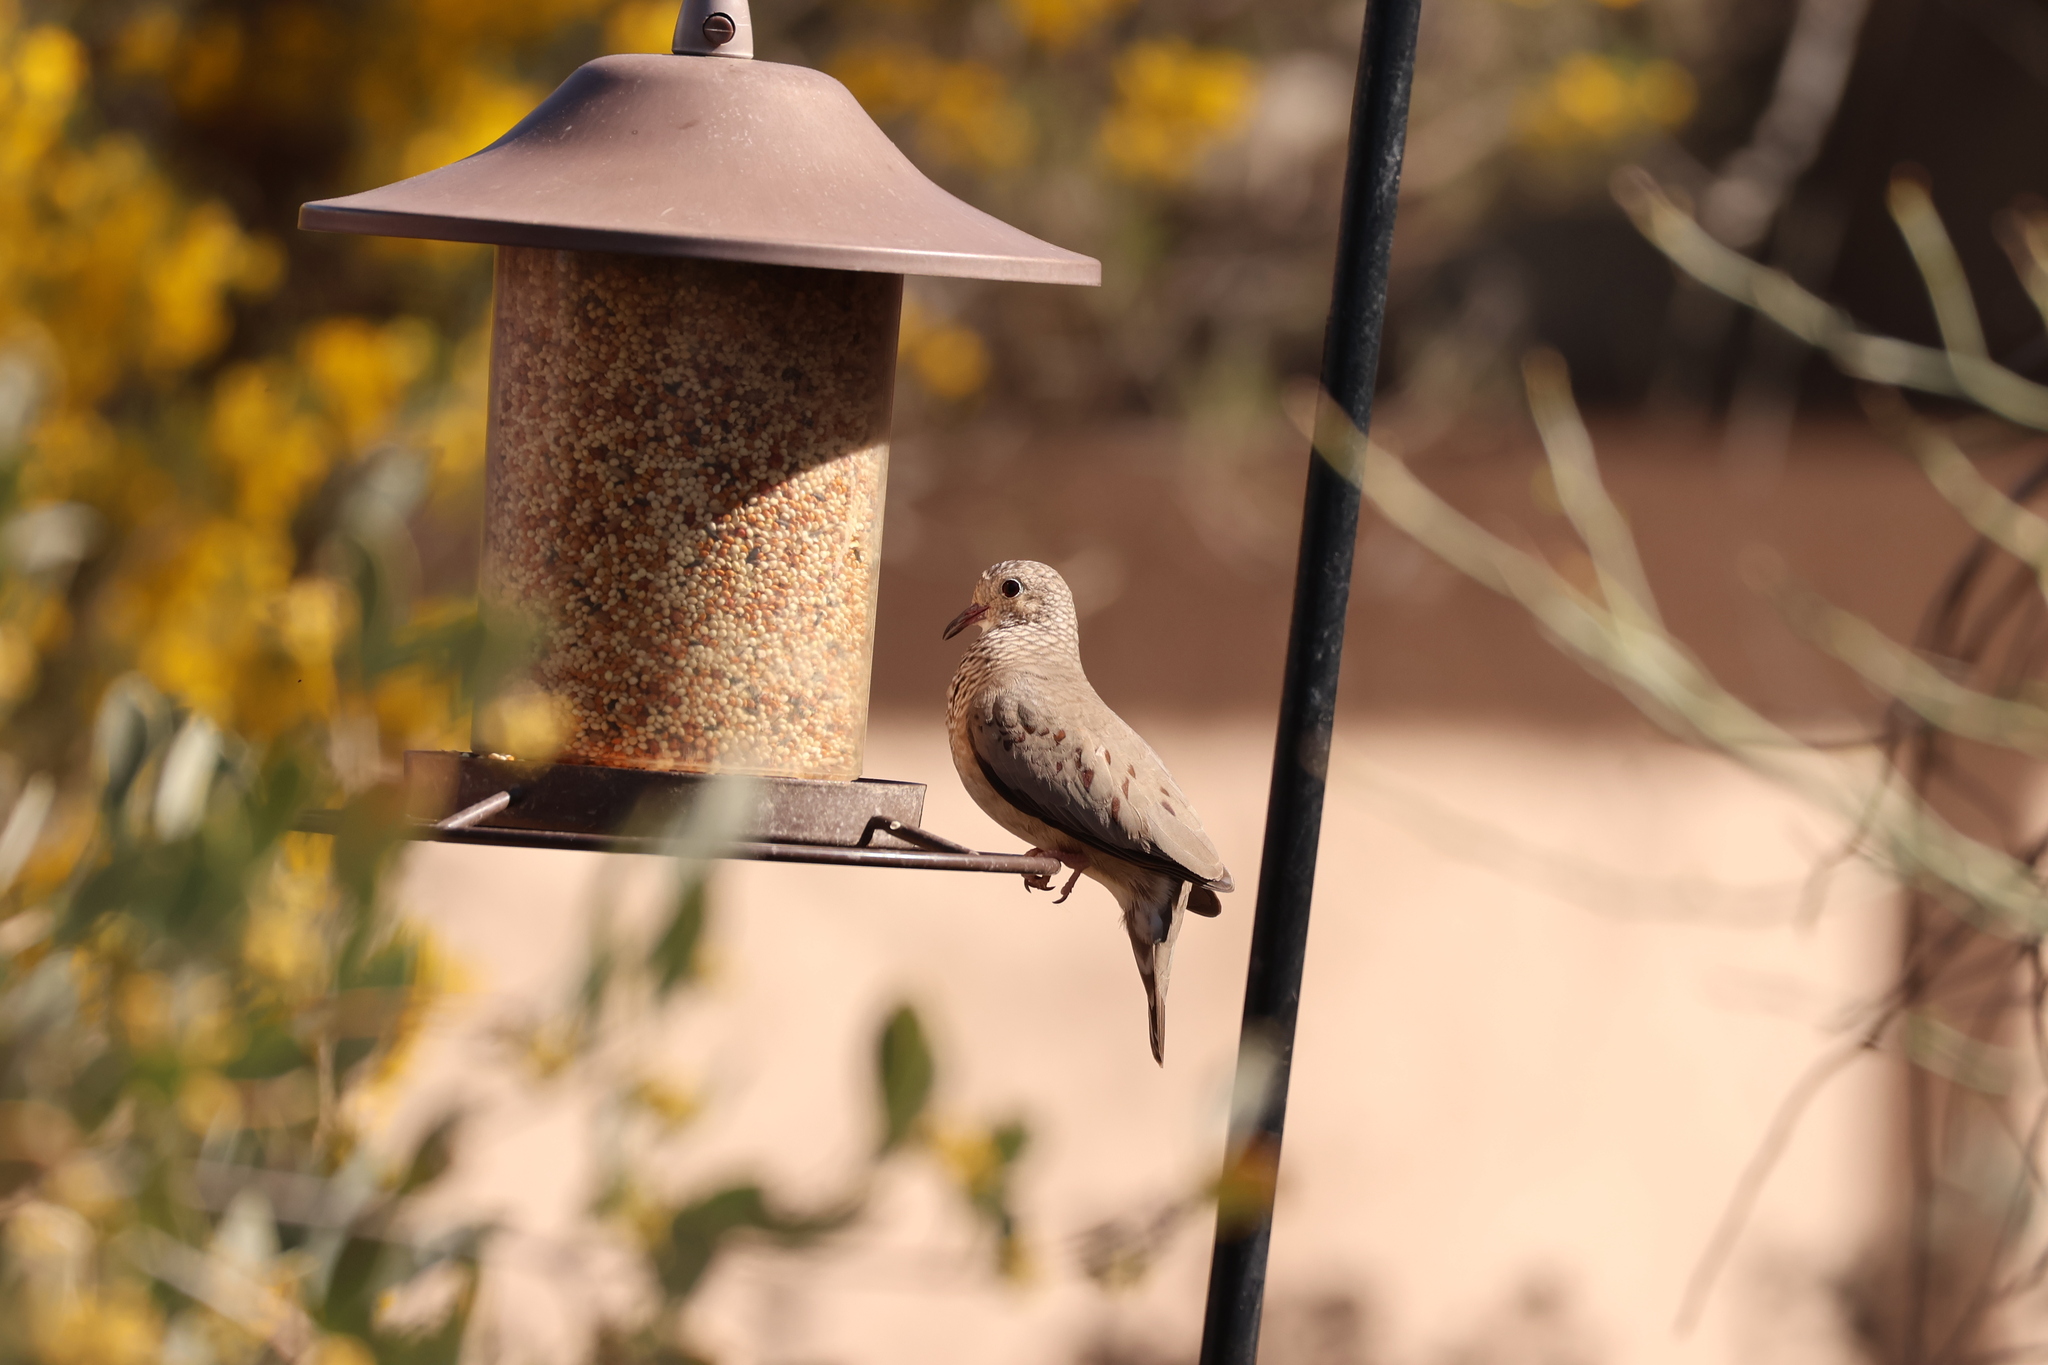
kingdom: Animalia
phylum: Chordata
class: Aves
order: Columbiformes
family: Columbidae
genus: Columbina
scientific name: Columbina passerina
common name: Common ground-dove
